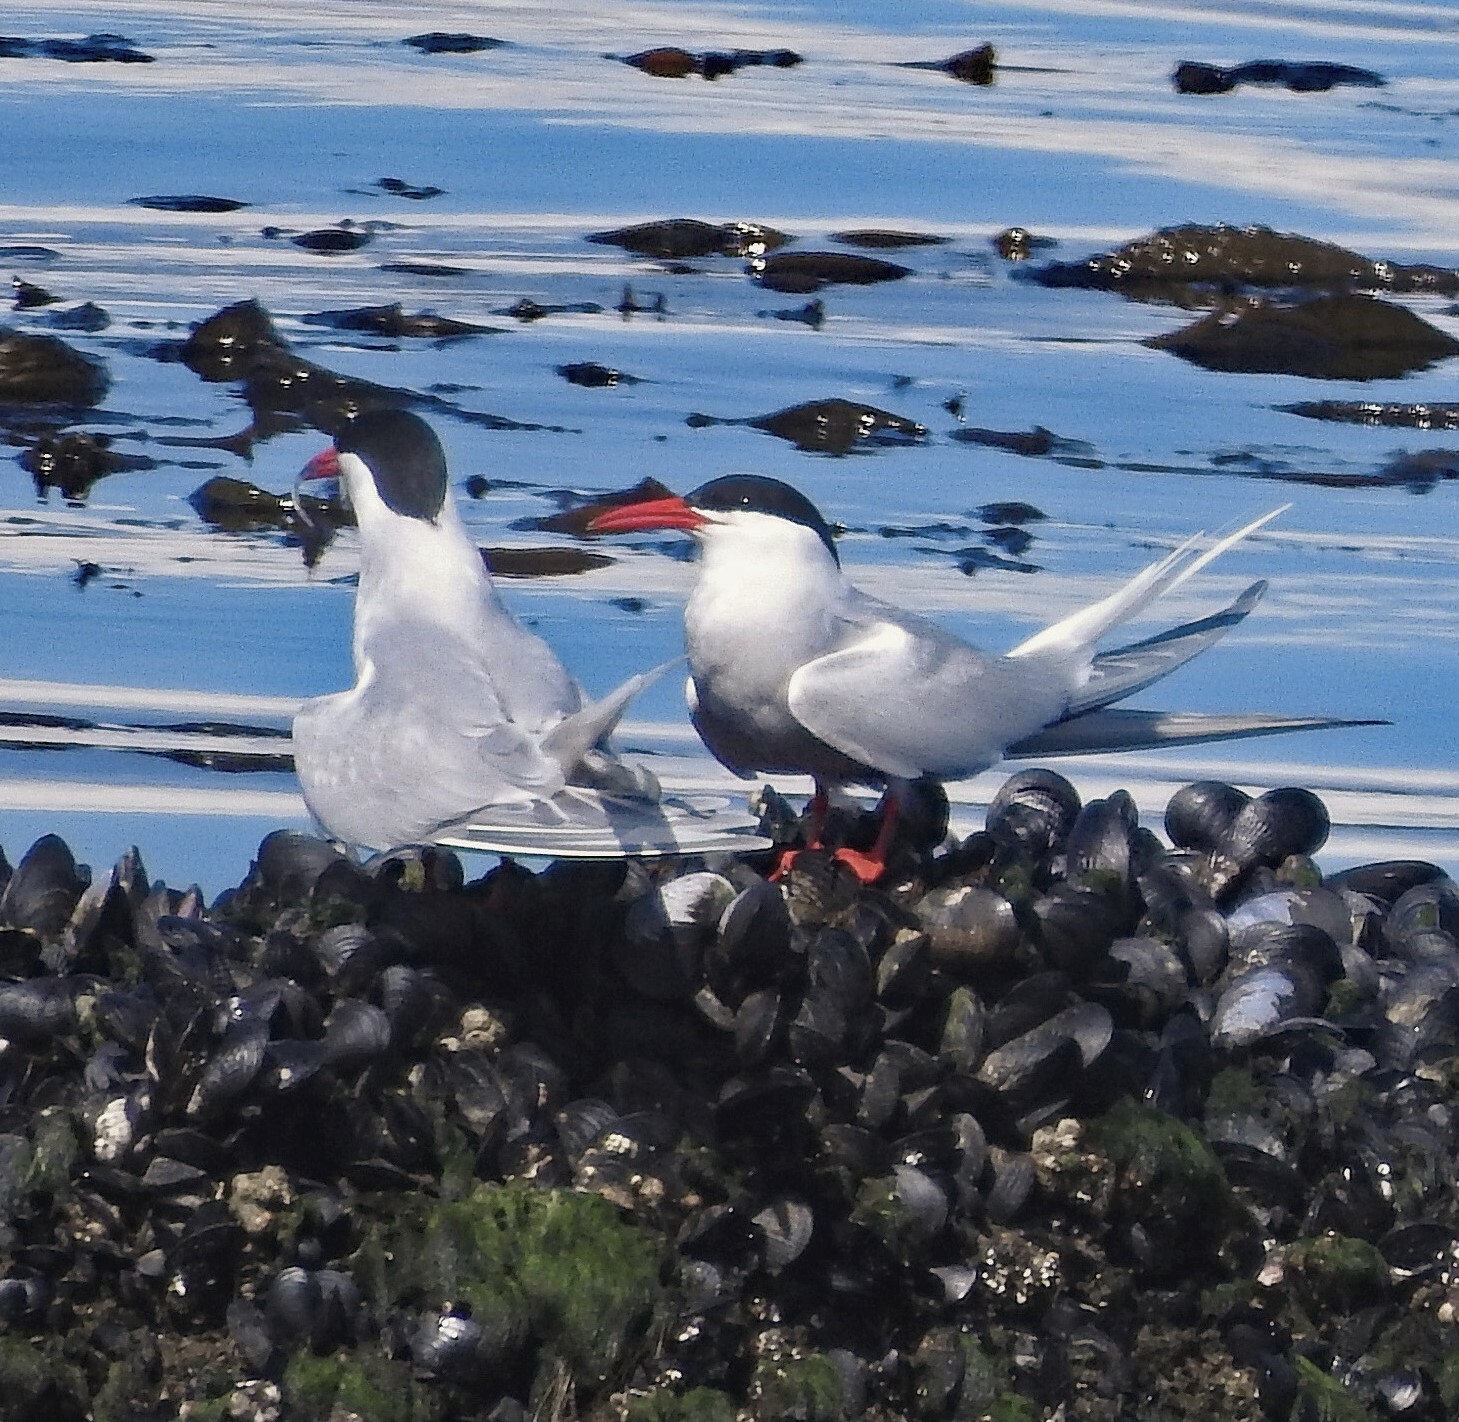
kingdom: Animalia
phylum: Chordata
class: Aves
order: Charadriiformes
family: Laridae
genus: Sterna
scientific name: Sterna hirundinacea
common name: South american tern
